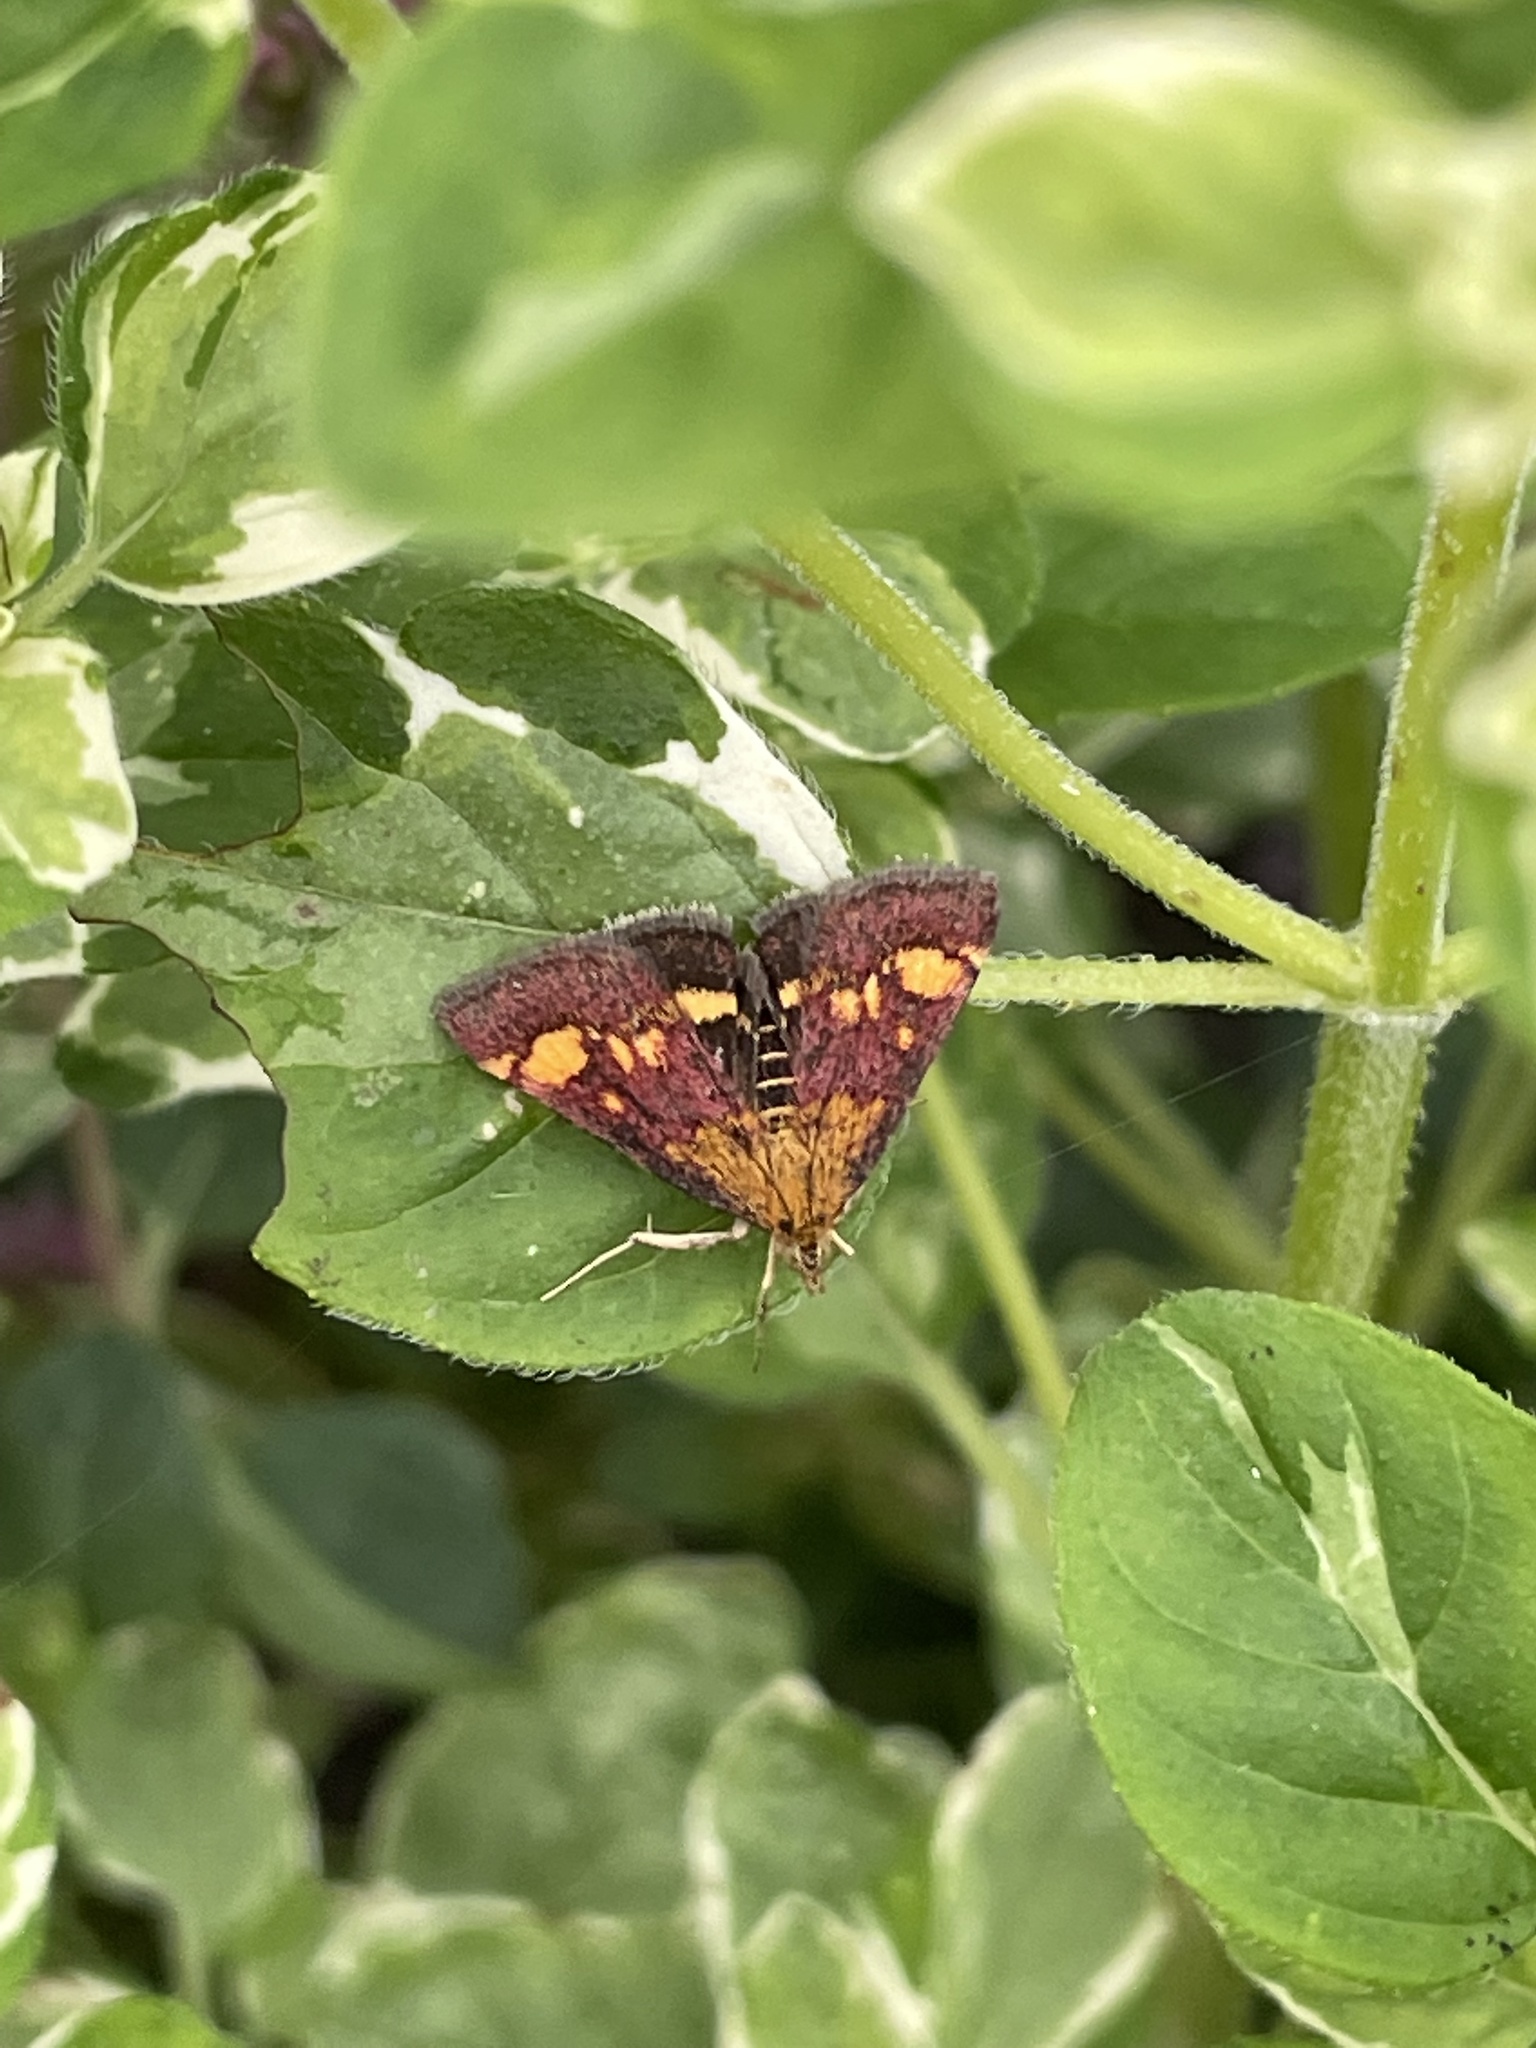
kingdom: Animalia
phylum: Arthropoda
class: Insecta
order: Lepidoptera
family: Crambidae
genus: Pyrausta
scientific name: Pyrausta purpuralis
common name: Common purple & gold
